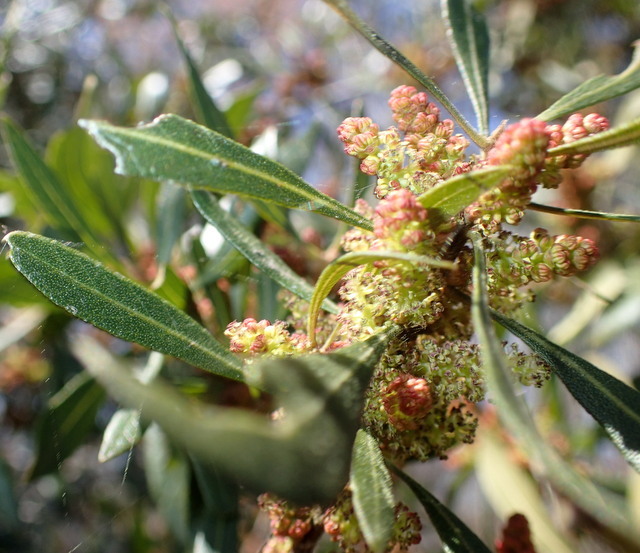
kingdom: Plantae
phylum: Tracheophyta
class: Magnoliopsida
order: Fagales
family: Myricaceae
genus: Morella
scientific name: Morella cerifera
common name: Wax myrtle
